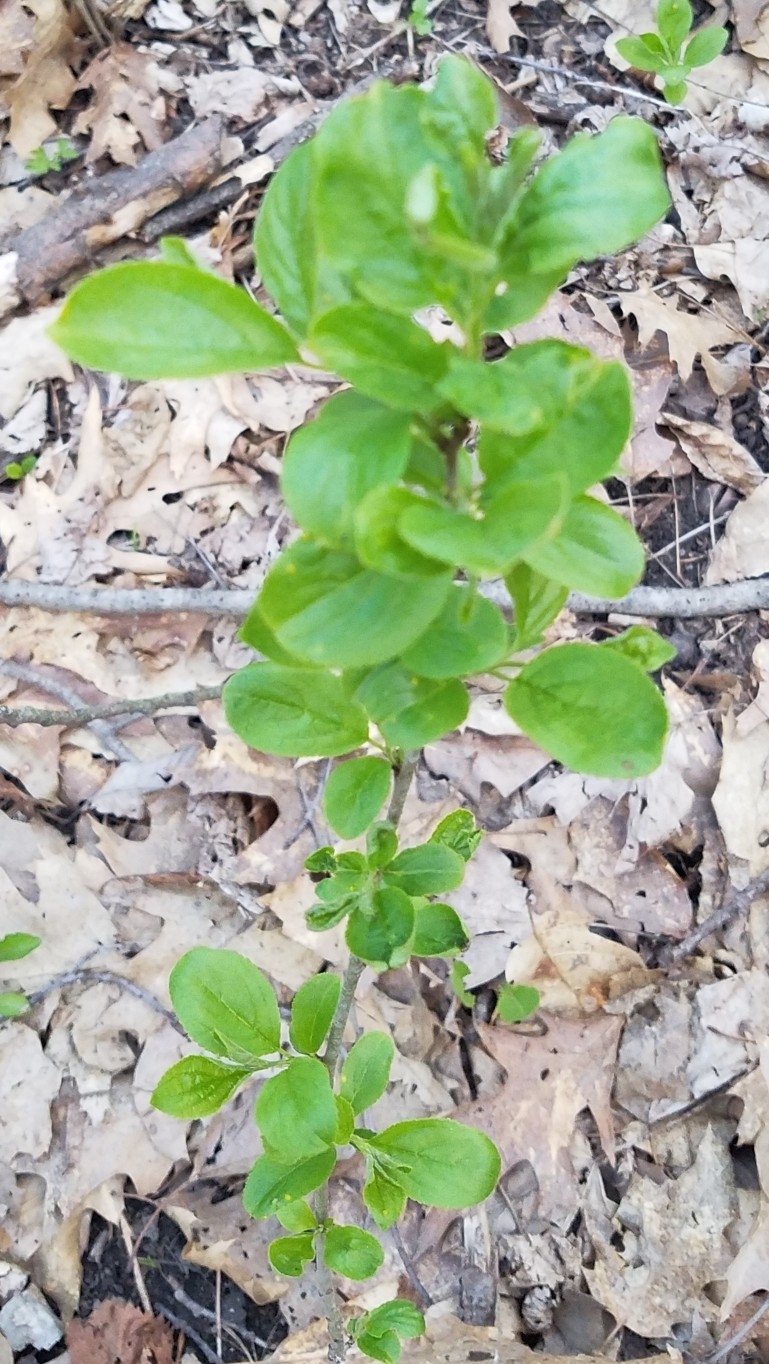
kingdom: Plantae
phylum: Tracheophyta
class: Magnoliopsida
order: Rosales
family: Rhamnaceae
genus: Rhamnus
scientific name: Rhamnus cathartica
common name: Common buckthorn
